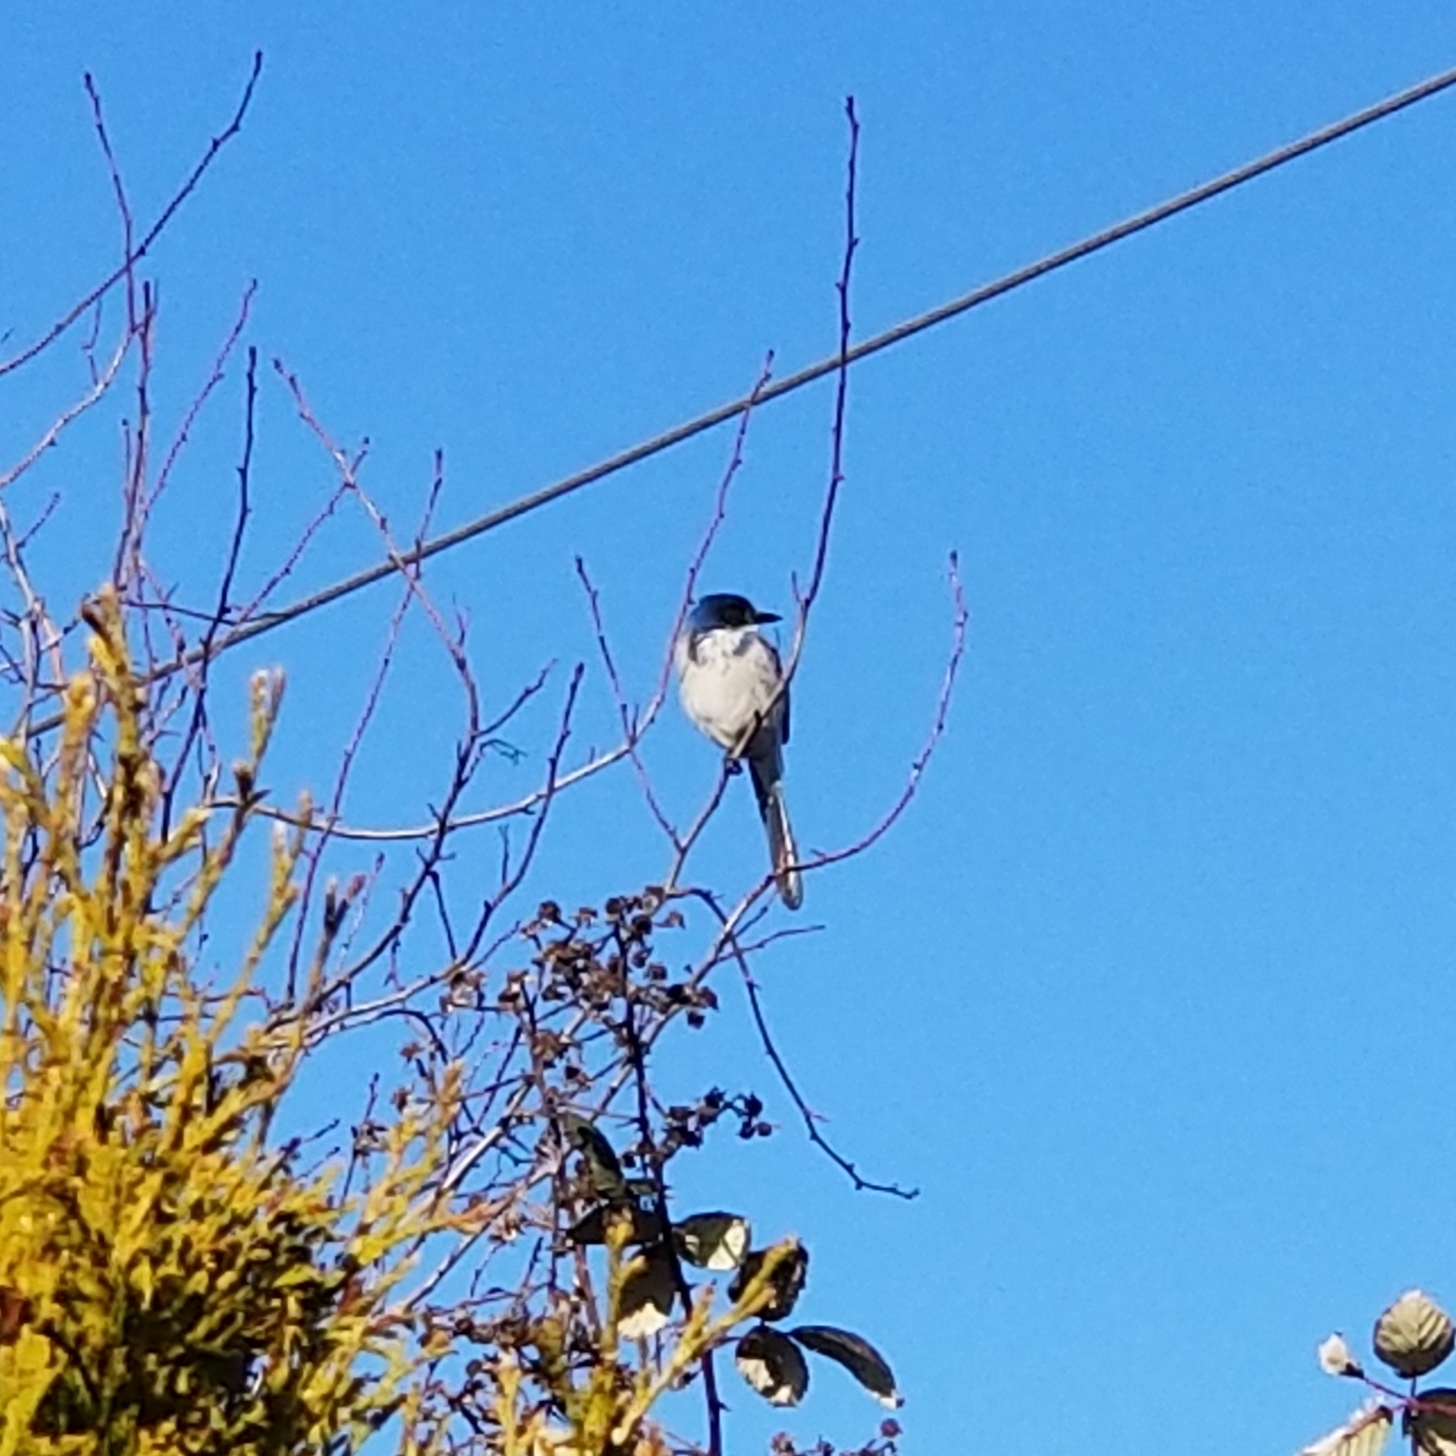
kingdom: Animalia
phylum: Chordata
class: Aves
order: Passeriformes
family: Corvidae
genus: Aphelocoma
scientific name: Aphelocoma californica
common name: California scrub-jay
